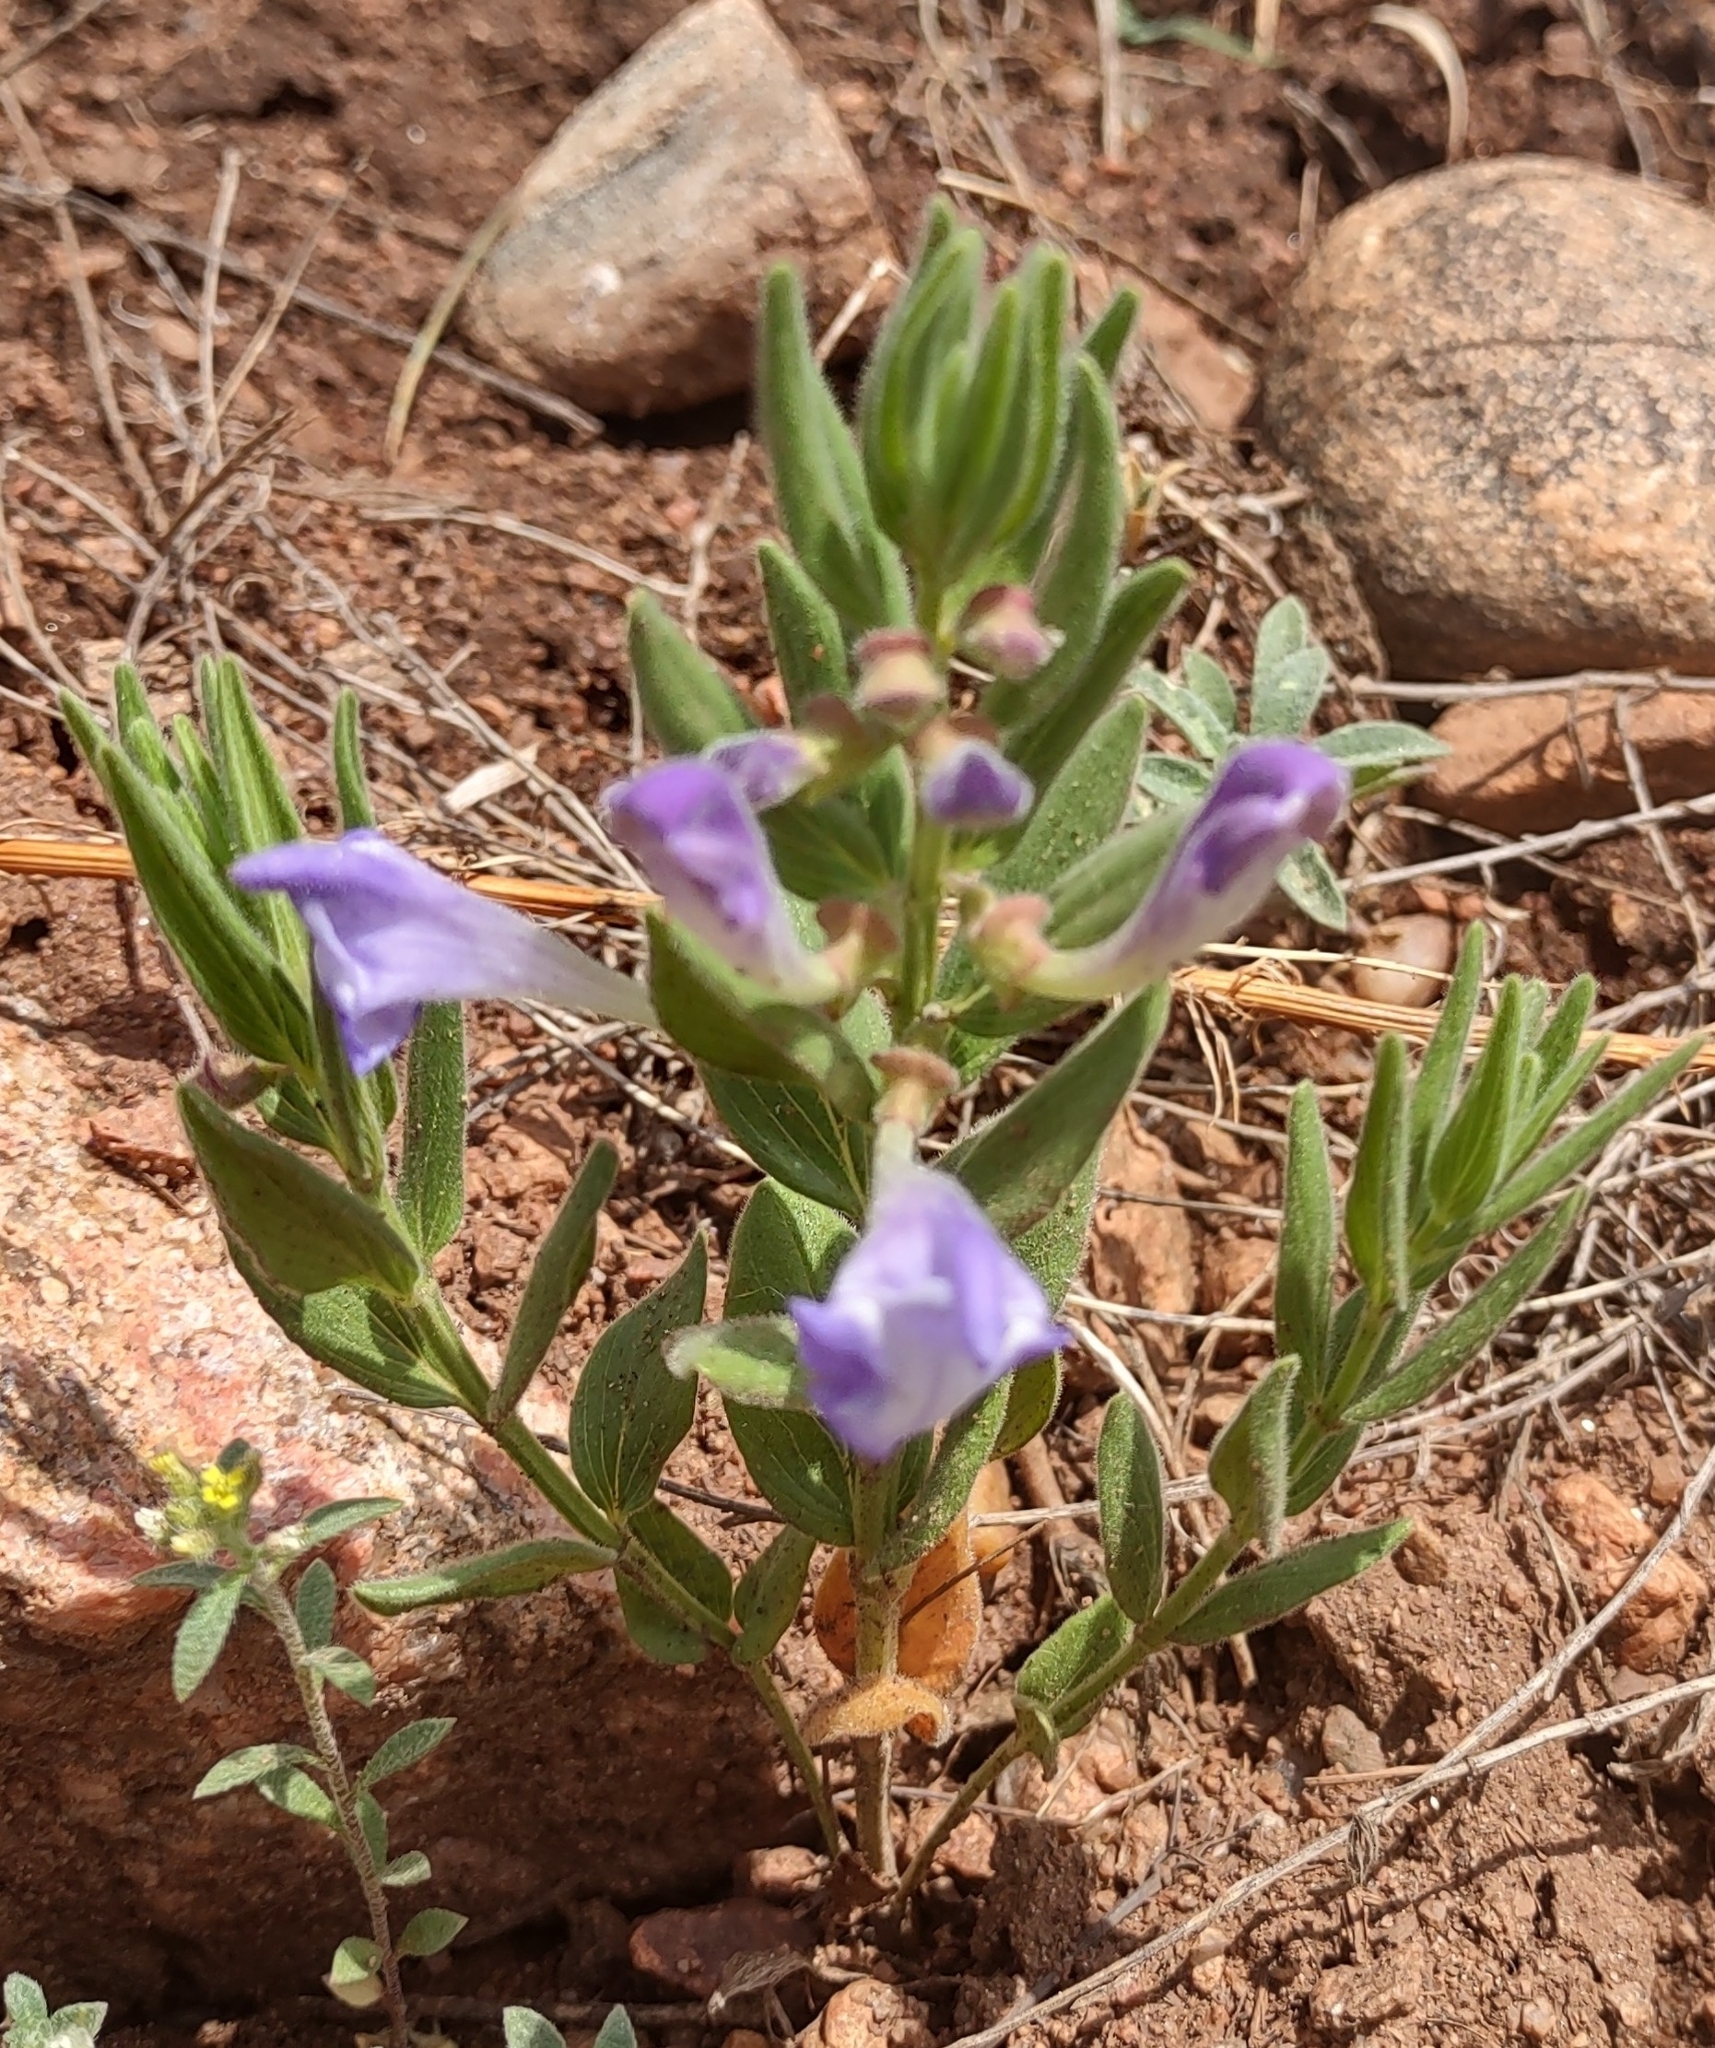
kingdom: Plantae
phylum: Tracheophyta
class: Magnoliopsida
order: Lamiales
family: Lamiaceae
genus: Scutellaria
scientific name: Scutellaria brittonii
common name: Britton's skullcap
